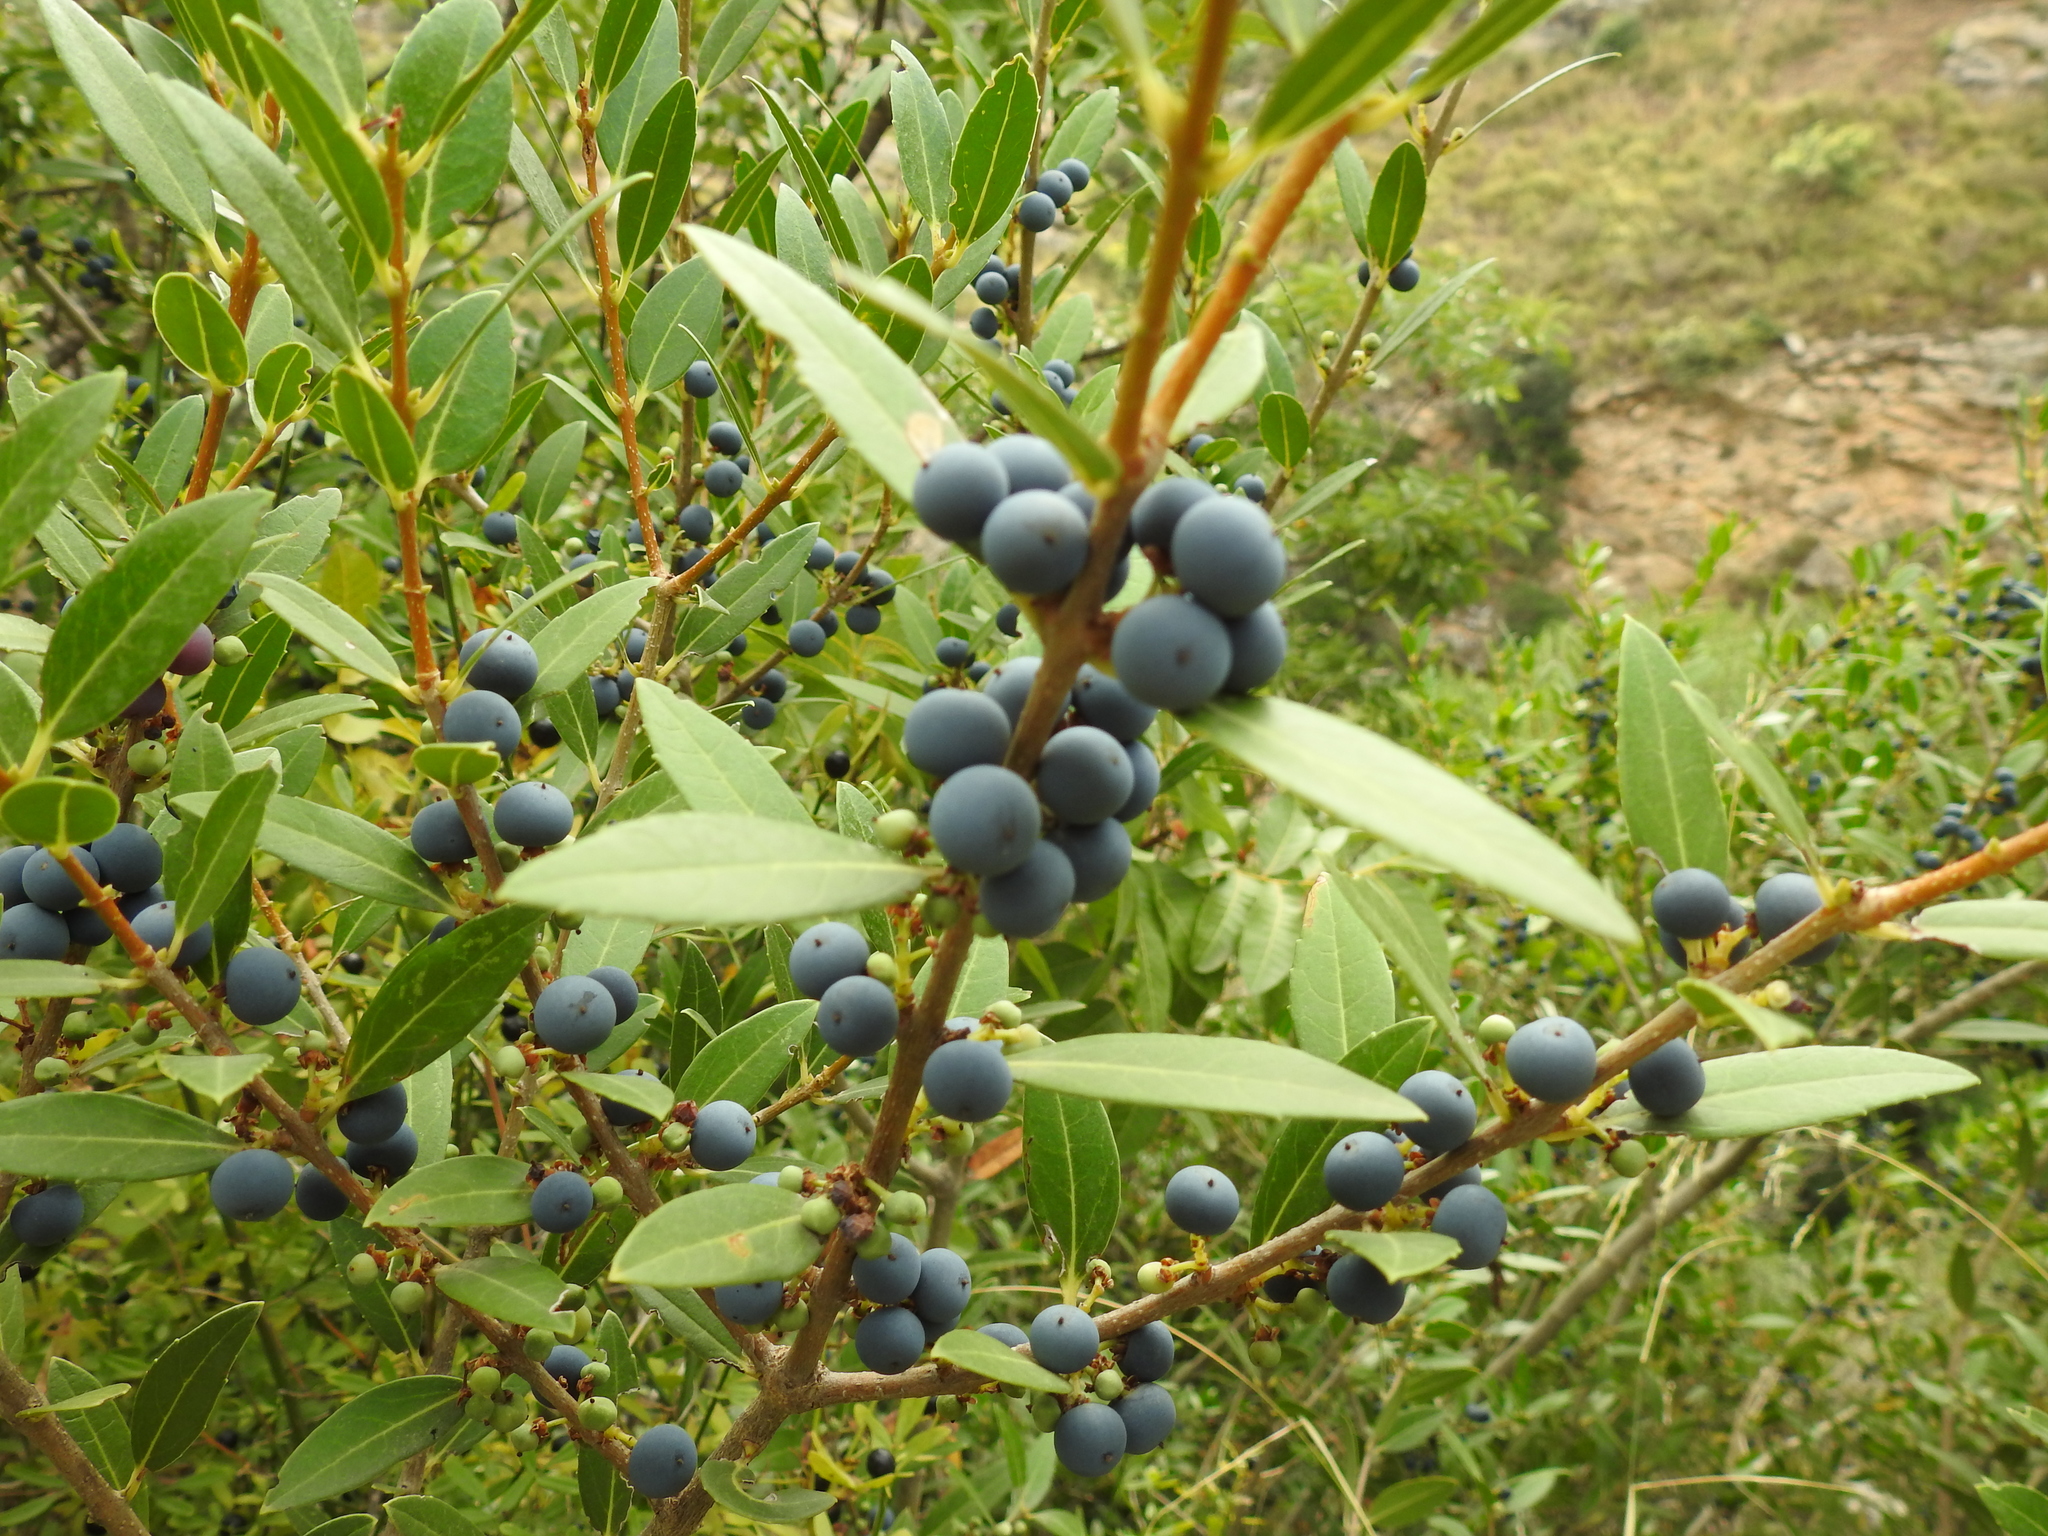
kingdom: Plantae
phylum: Tracheophyta
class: Magnoliopsida
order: Myrtales
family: Myrtaceae
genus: Myrtus
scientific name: Myrtus communis
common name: Myrtle
